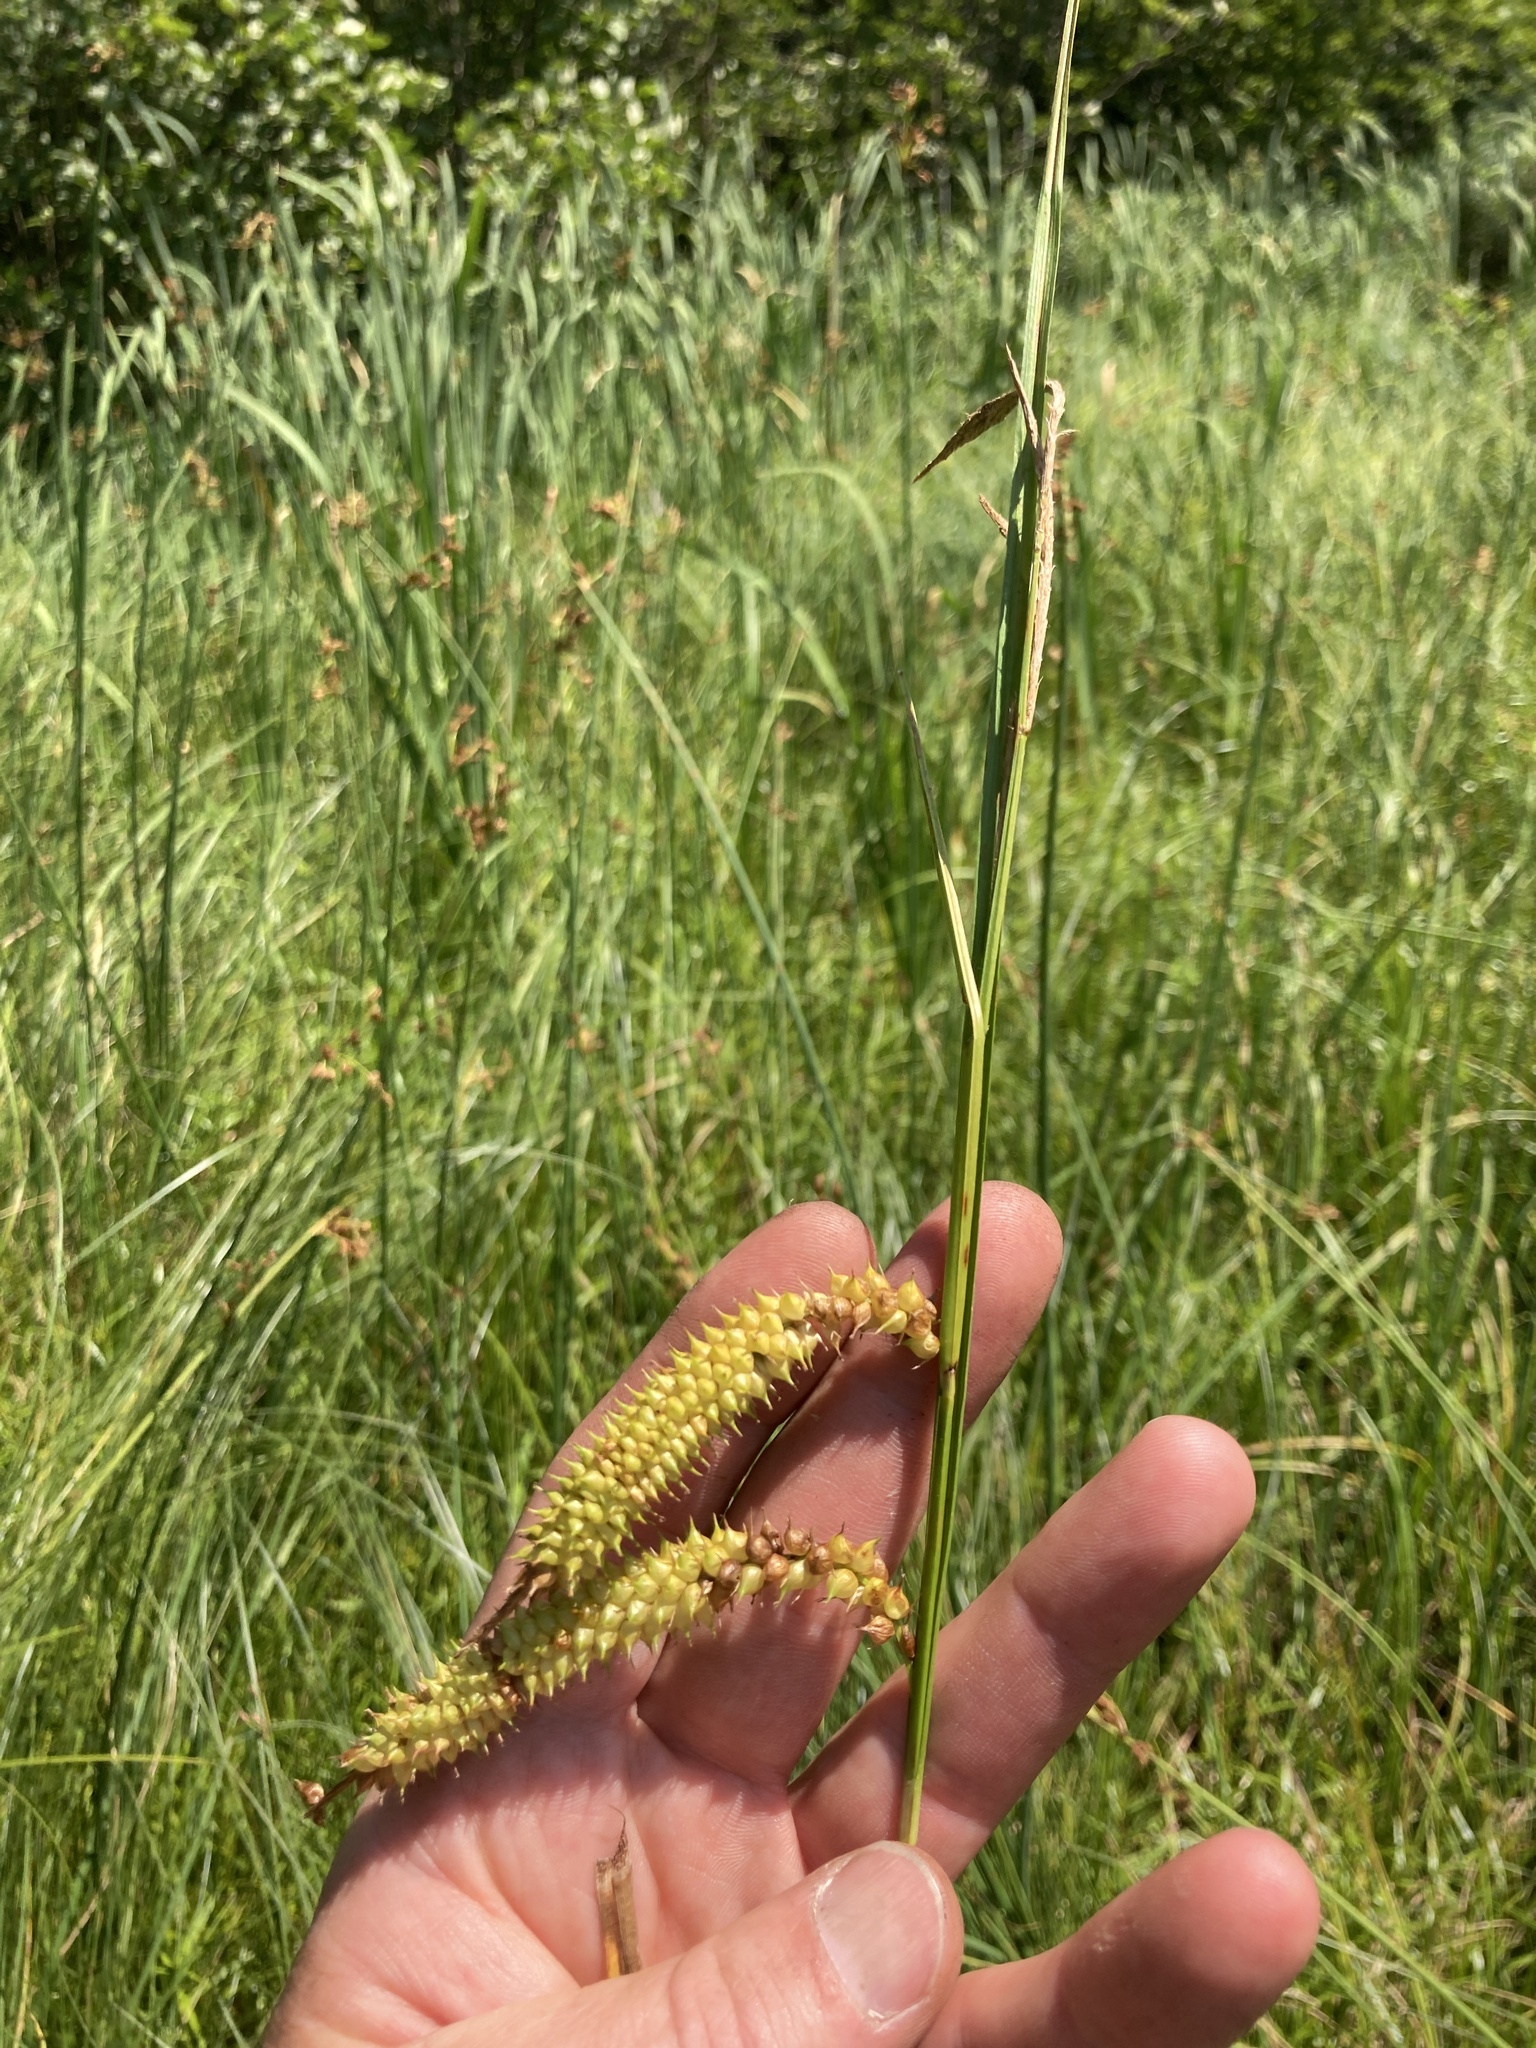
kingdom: Plantae
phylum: Tracheophyta
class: Liliopsida
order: Poales
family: Cyperaceae
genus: Carex
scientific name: Carex utriculata
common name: Beaked sedge
